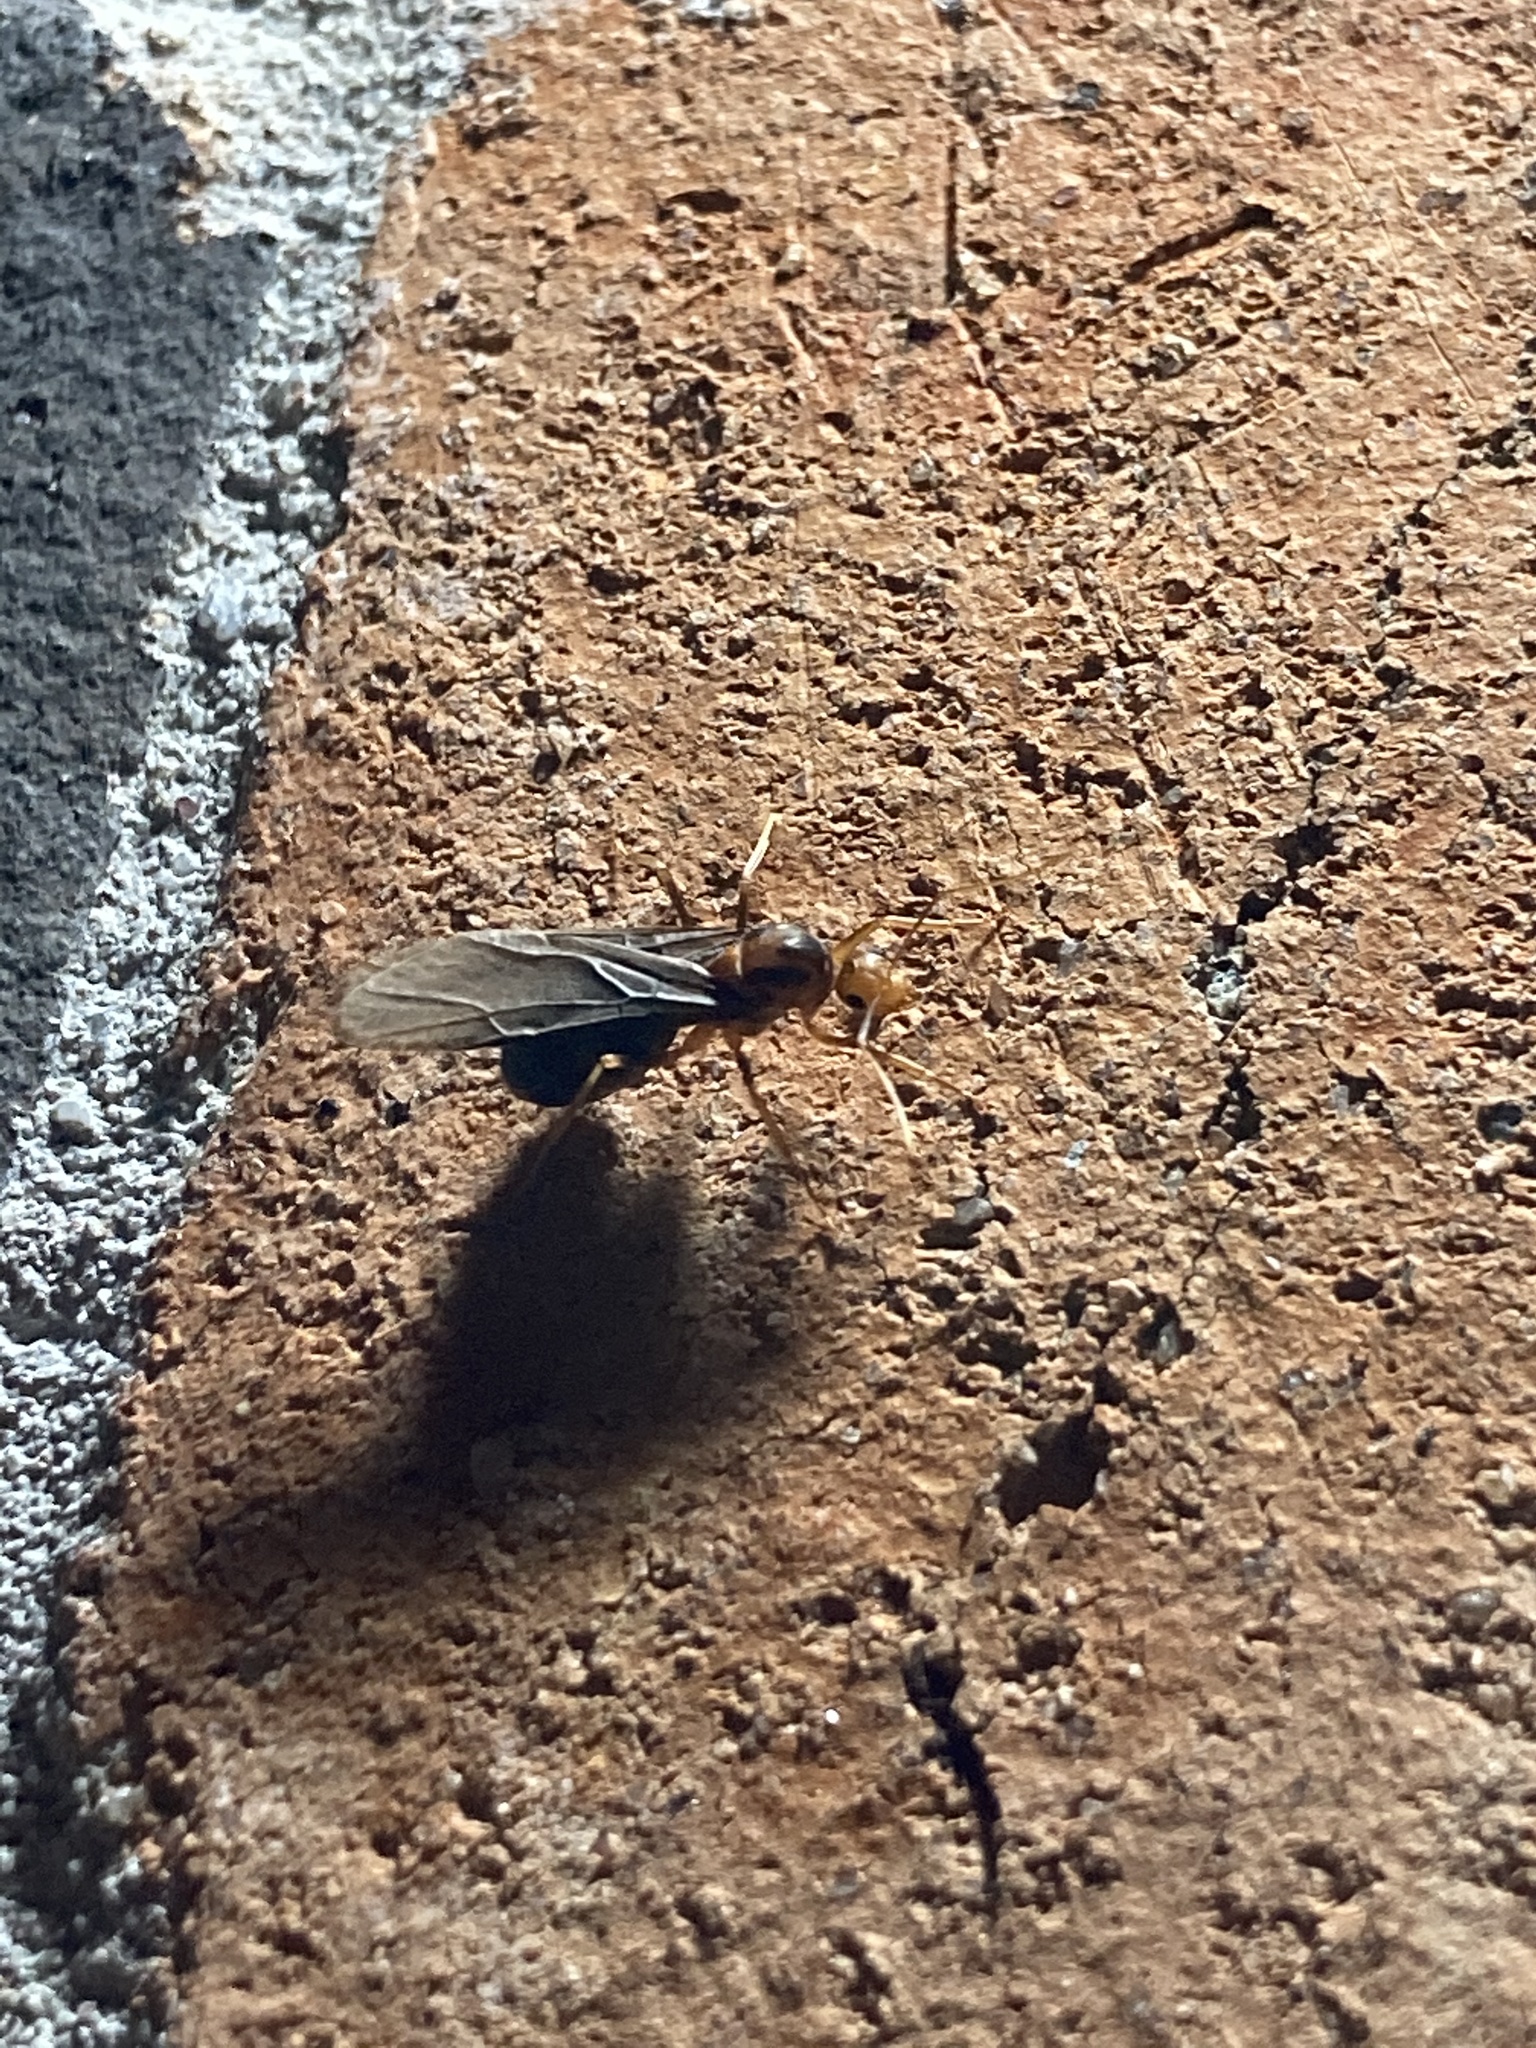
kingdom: Animalia
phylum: Arthropoda
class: Insecta
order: Hymenoptera
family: Formicidae
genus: Anoplolepis
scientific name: Anoplolepis gracilipes
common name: Ant
